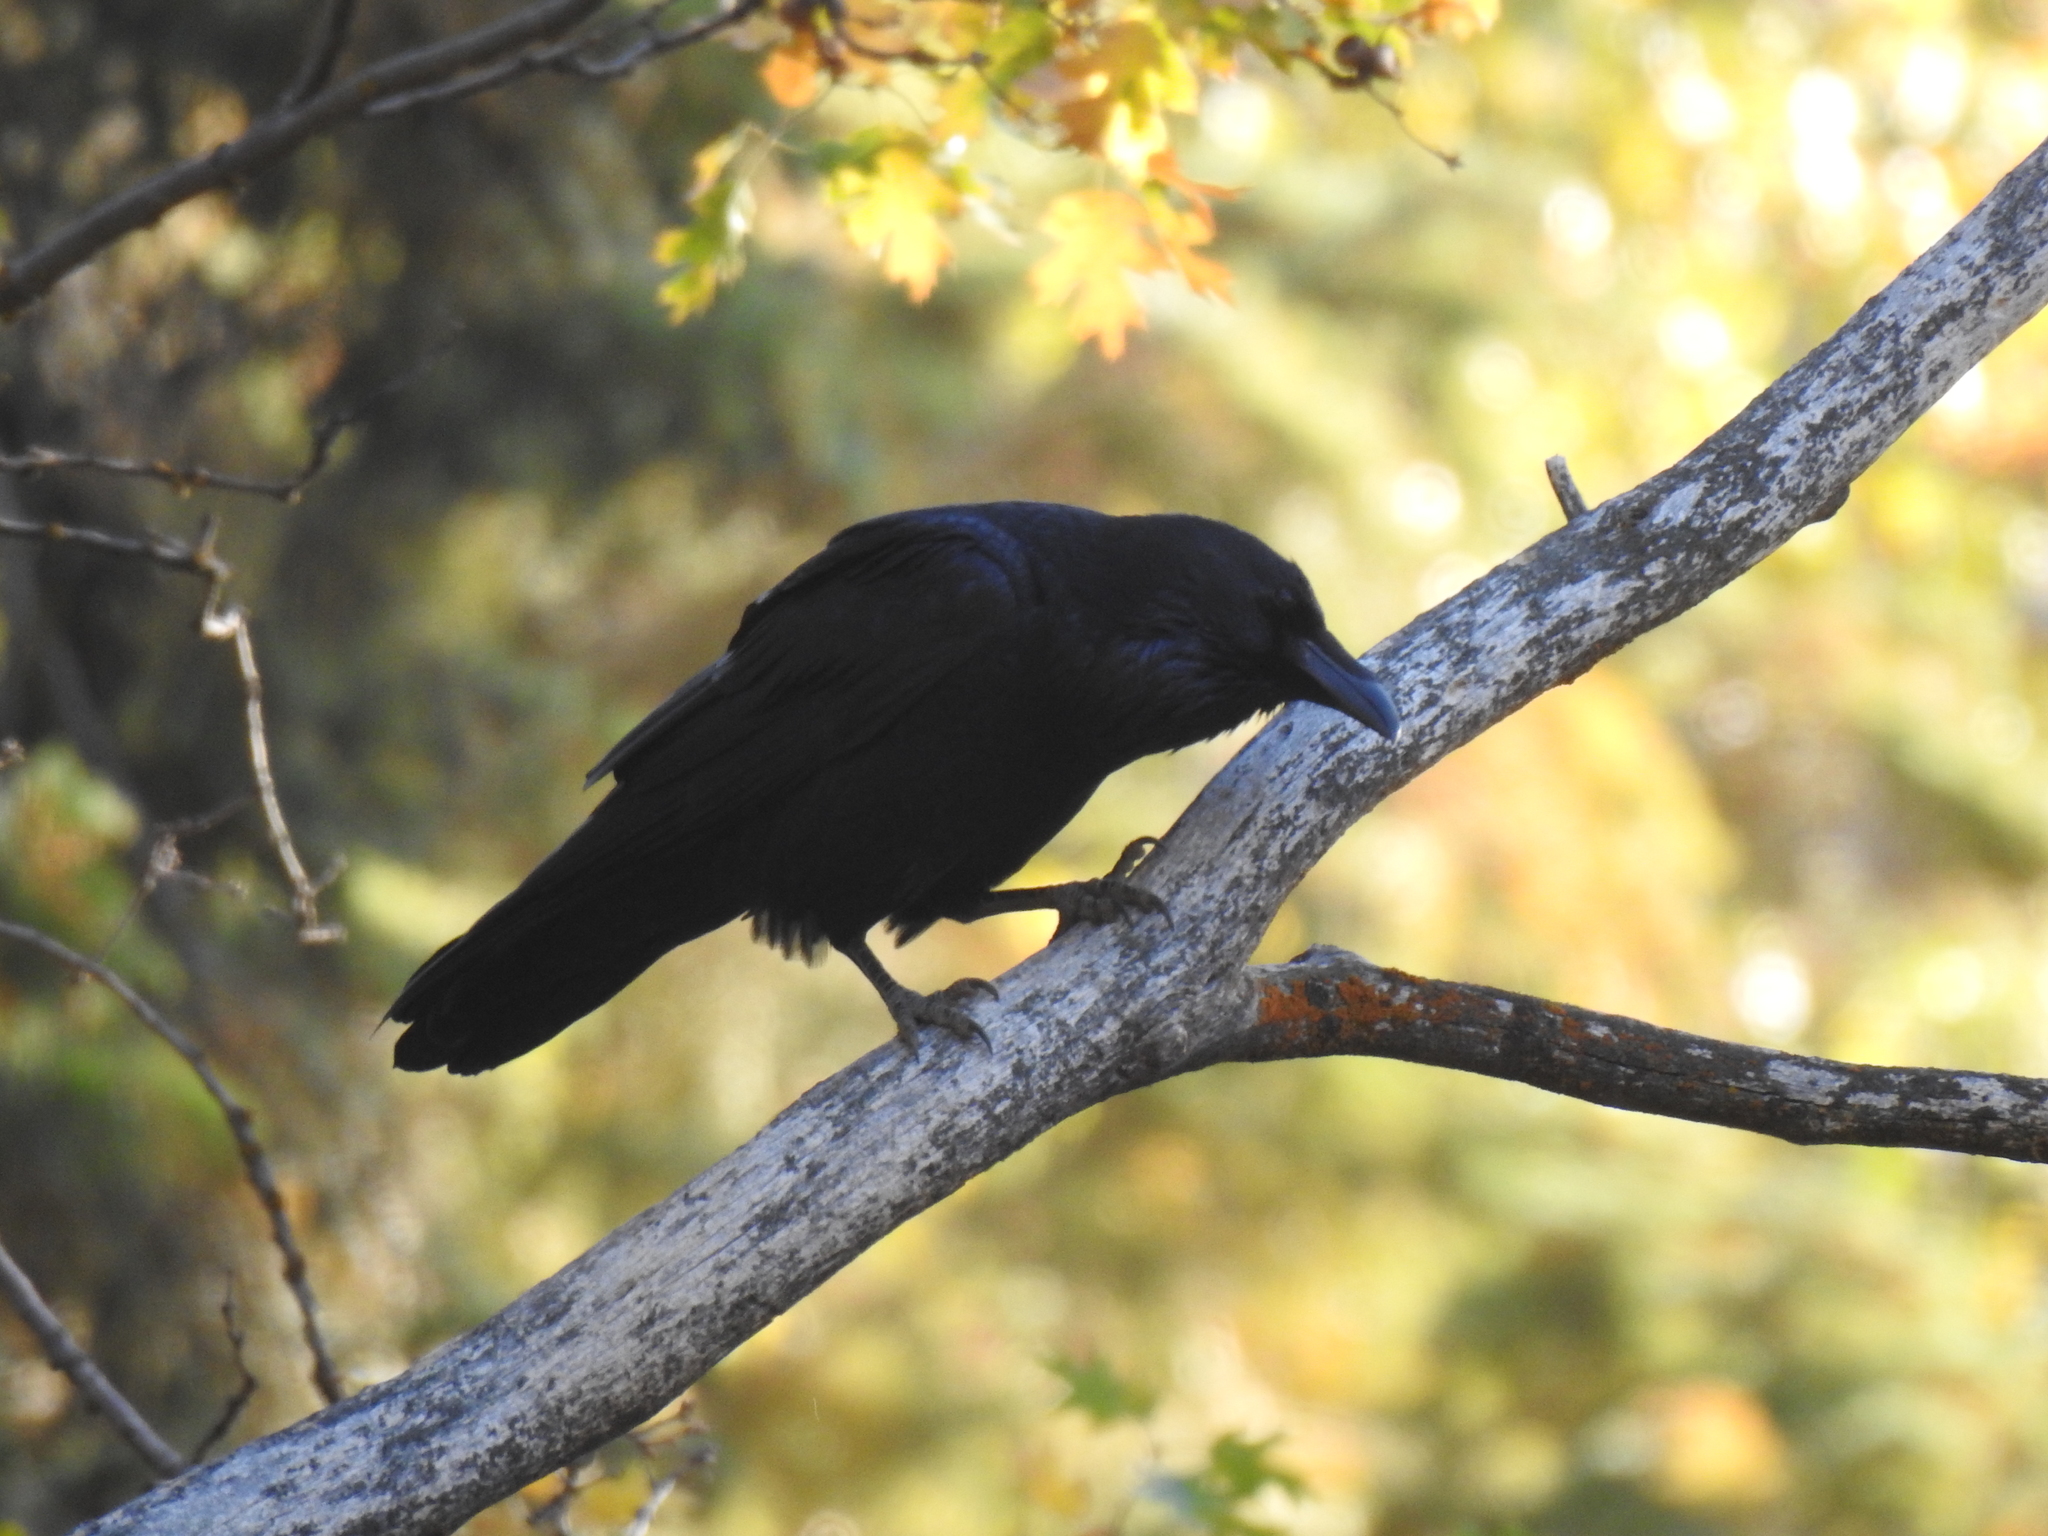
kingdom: Animalia
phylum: Chordata
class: Aves
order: Passeriformes
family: Corvidae
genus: Corvus
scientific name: Corvus corax
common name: Common raven
